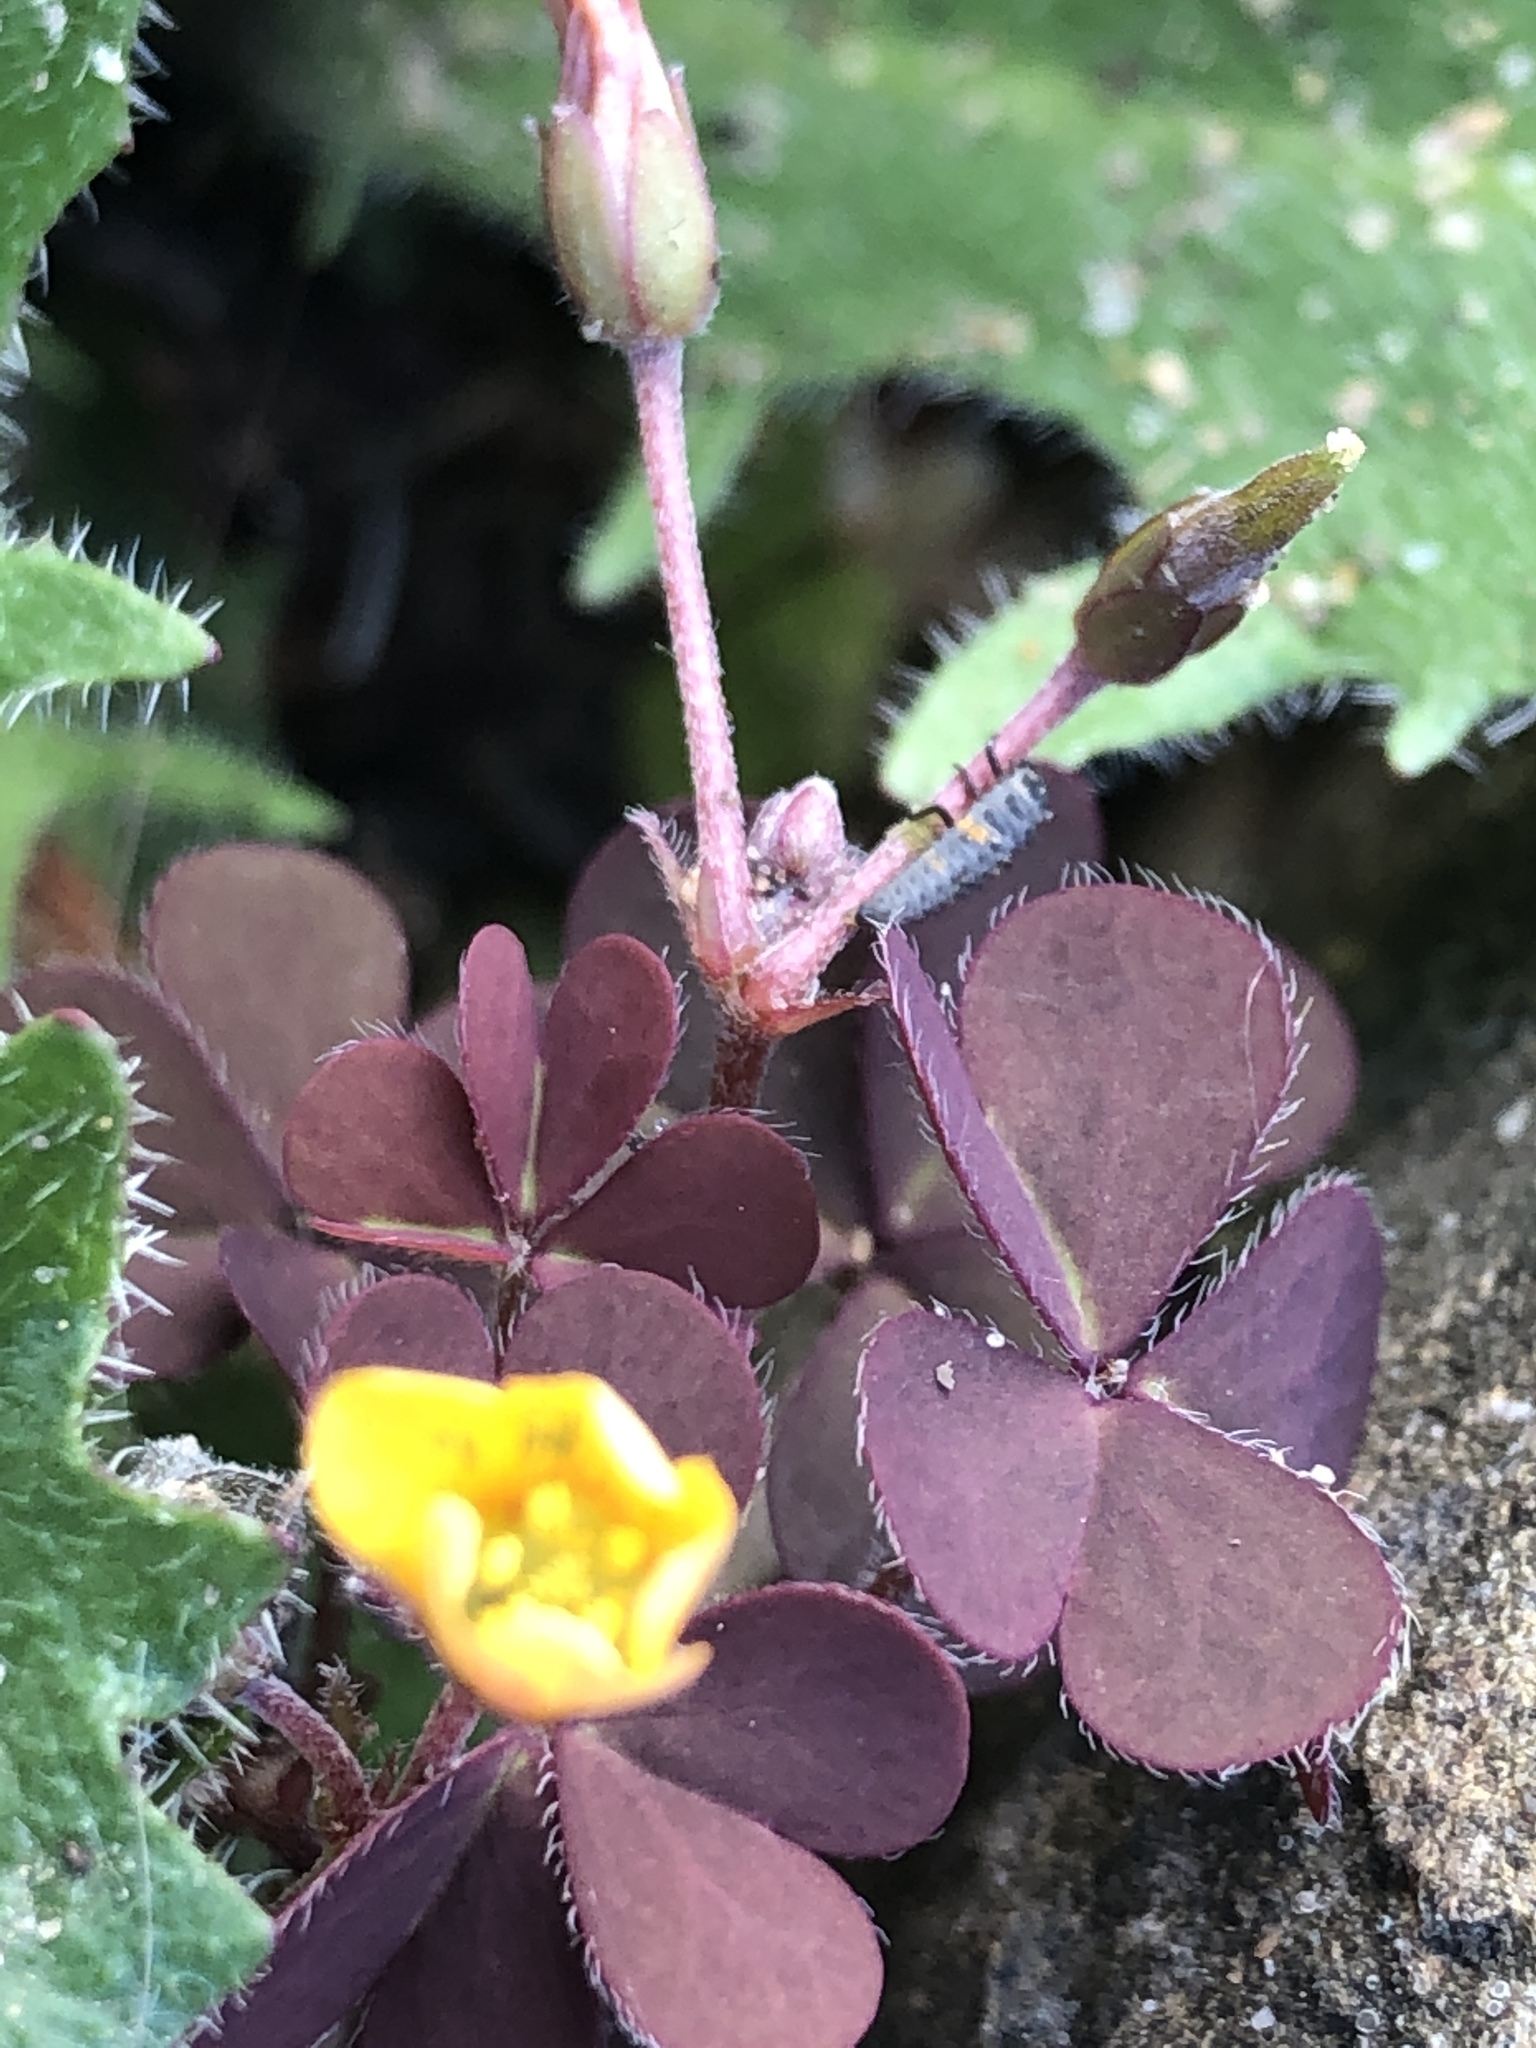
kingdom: Plantae
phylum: Tracheophyta
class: Magnoliopsida
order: Oxalidales
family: Oxalidaceae
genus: Oxalis
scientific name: Oxalis corniculata
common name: Procumbent yellow-sorrel
